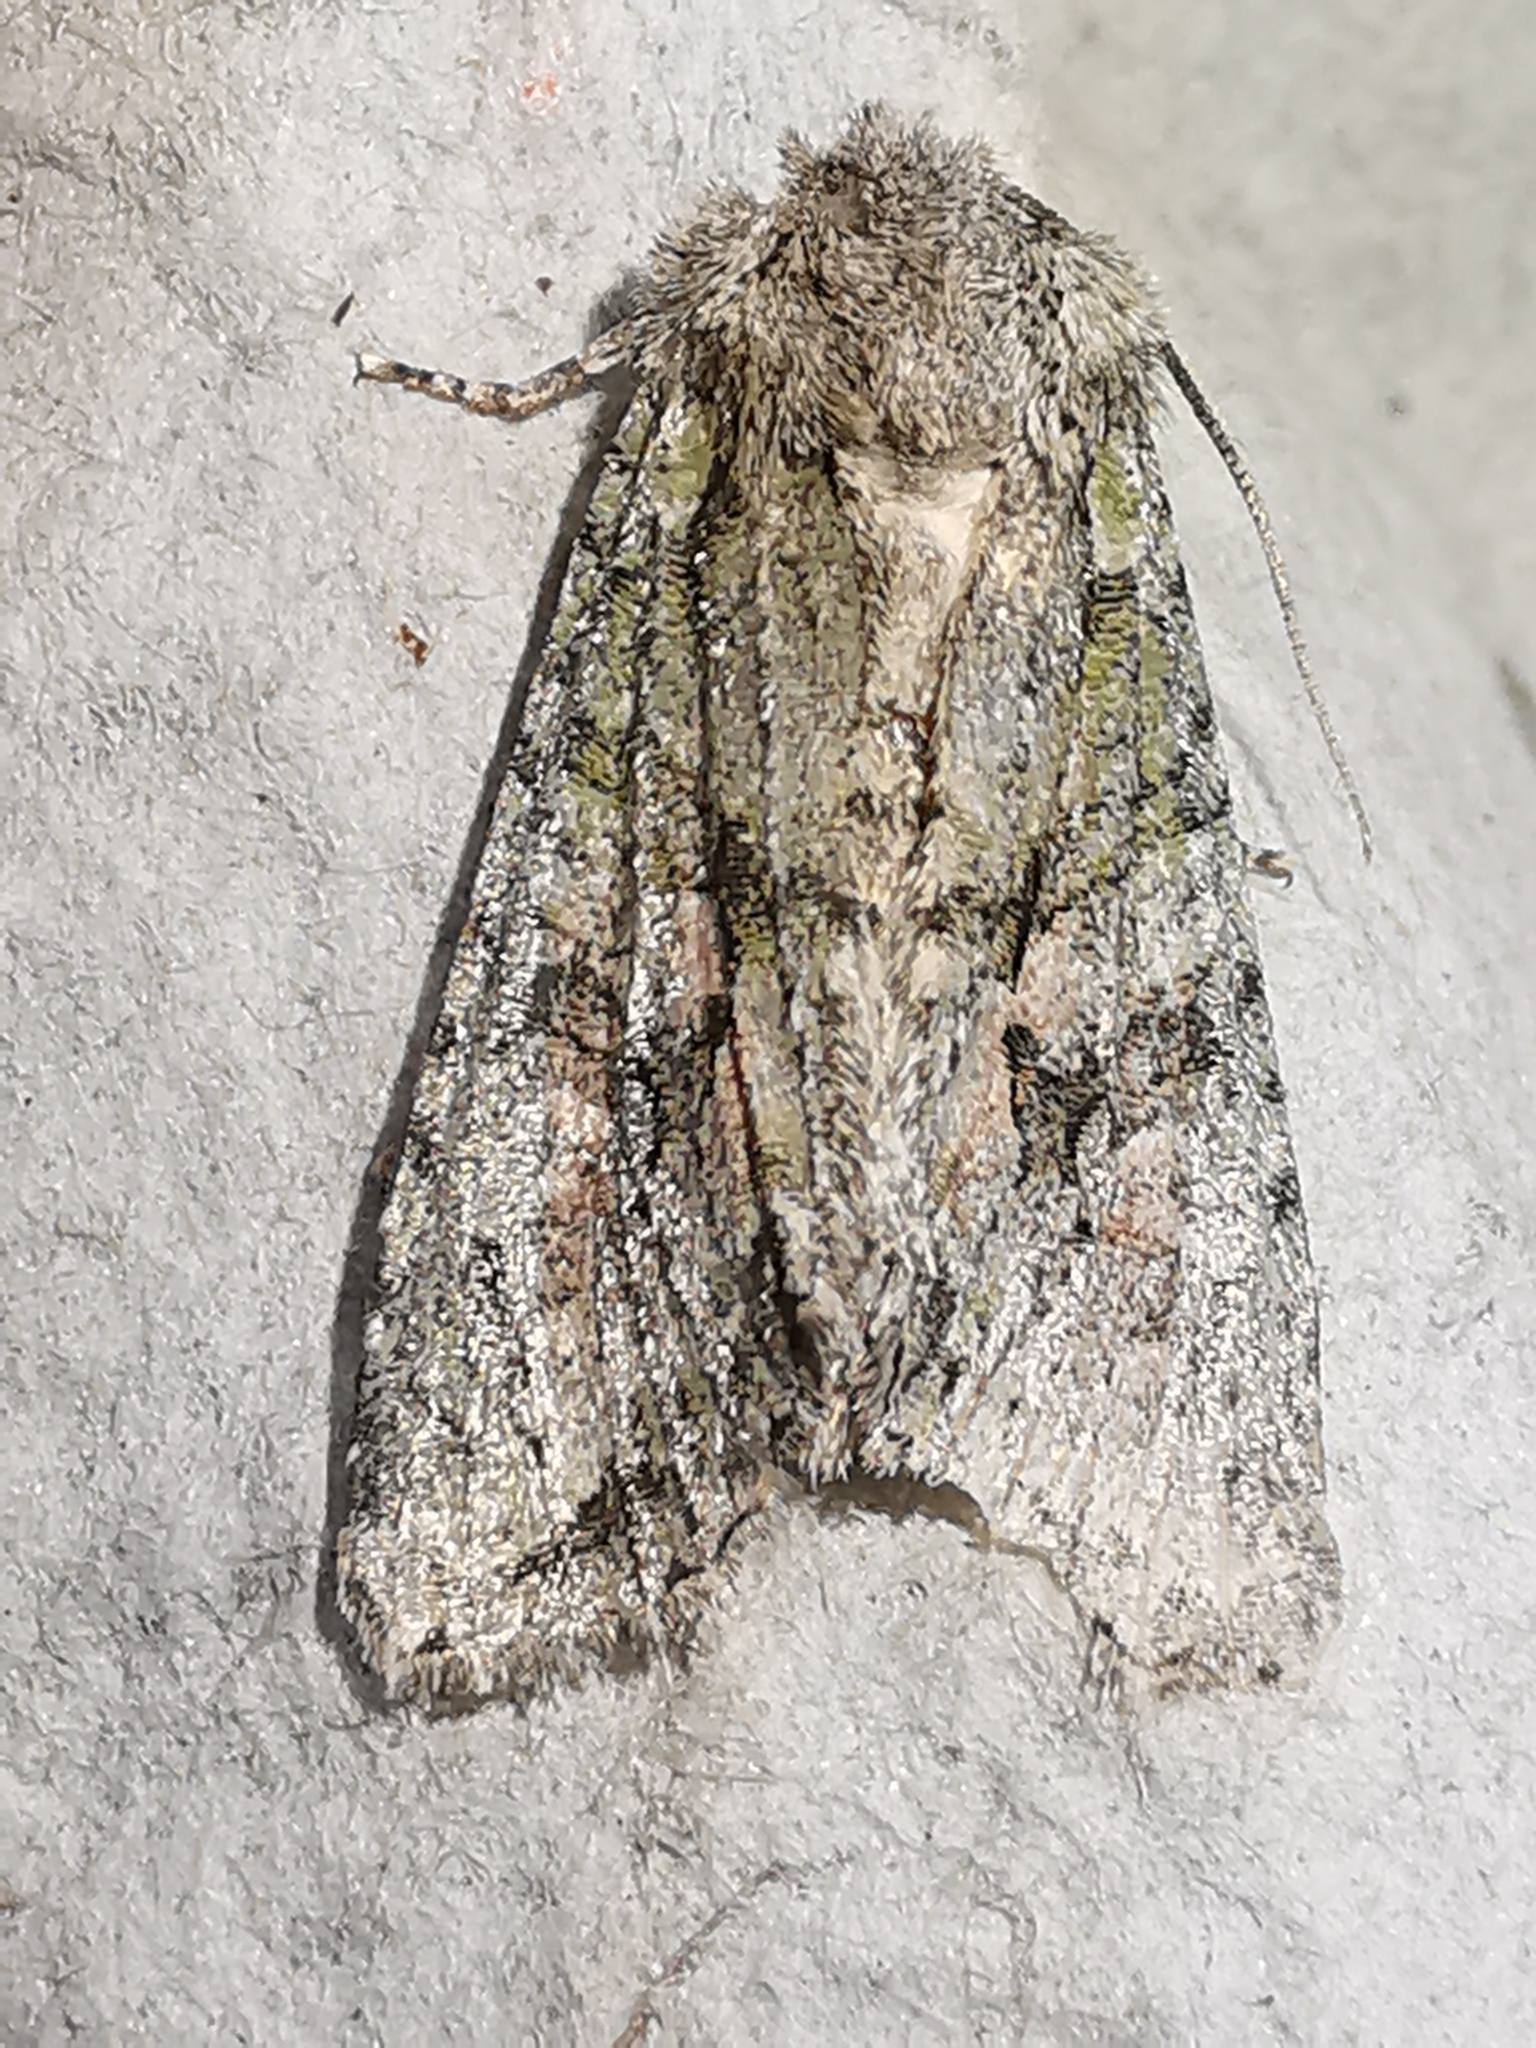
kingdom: Animalia
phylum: Arthropoda
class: Insecta
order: Lepidoptera
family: Noctuidae
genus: Dryobotodes
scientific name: Dryobotodes eremita
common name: Brindled green
